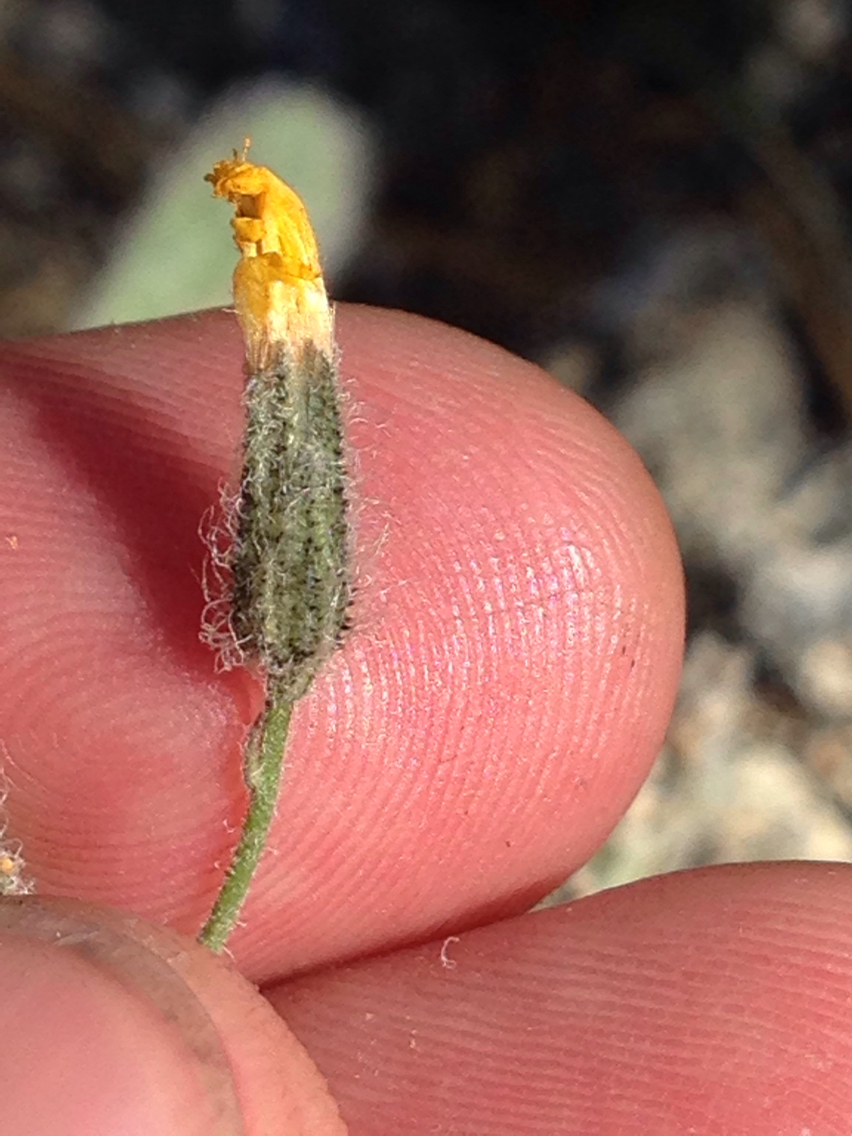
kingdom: Plantae
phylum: Tracheophyta
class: Magnoliopsida
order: Asterales
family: Asteraceae
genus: Hieracium
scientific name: Hieracium horridum
